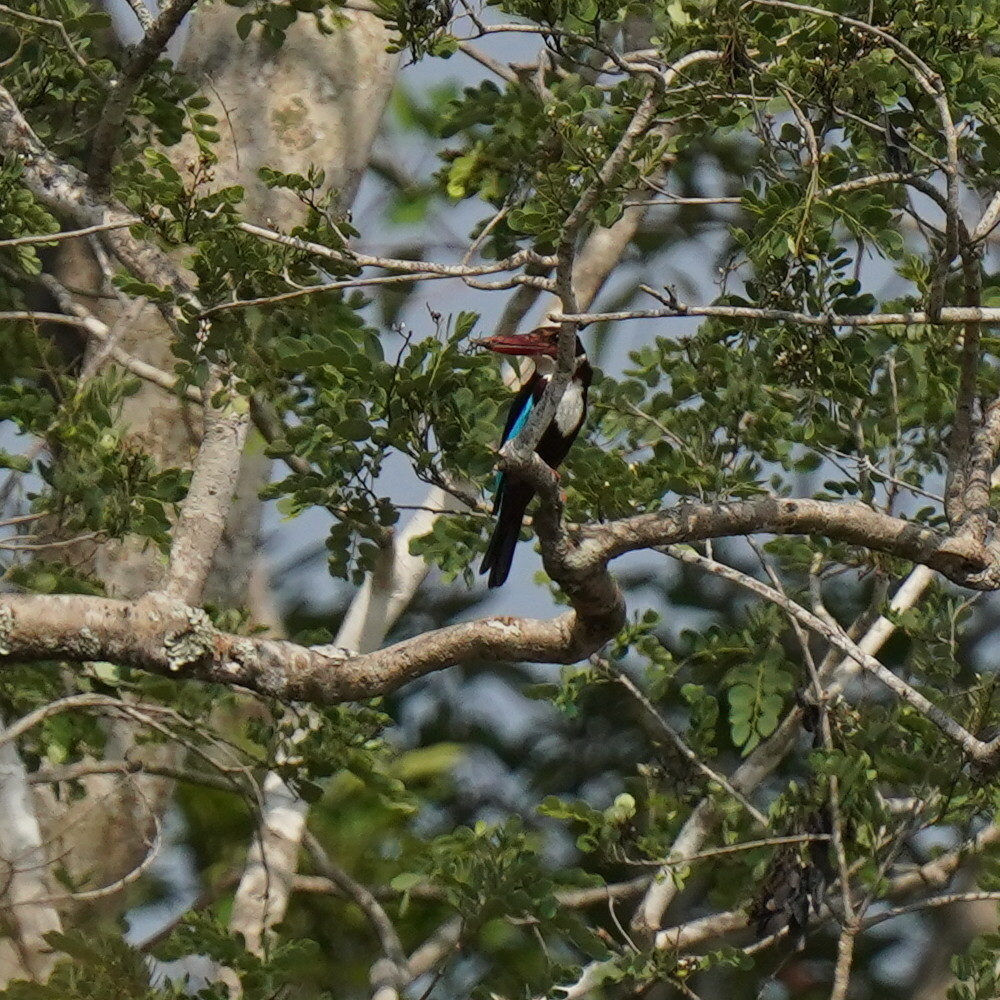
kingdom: Animalia
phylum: Chordata
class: Aves
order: Coraciiformes
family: Alcedinidae
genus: Halcyon
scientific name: Halcyon smyrnensis
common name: White-throated kingfisher
